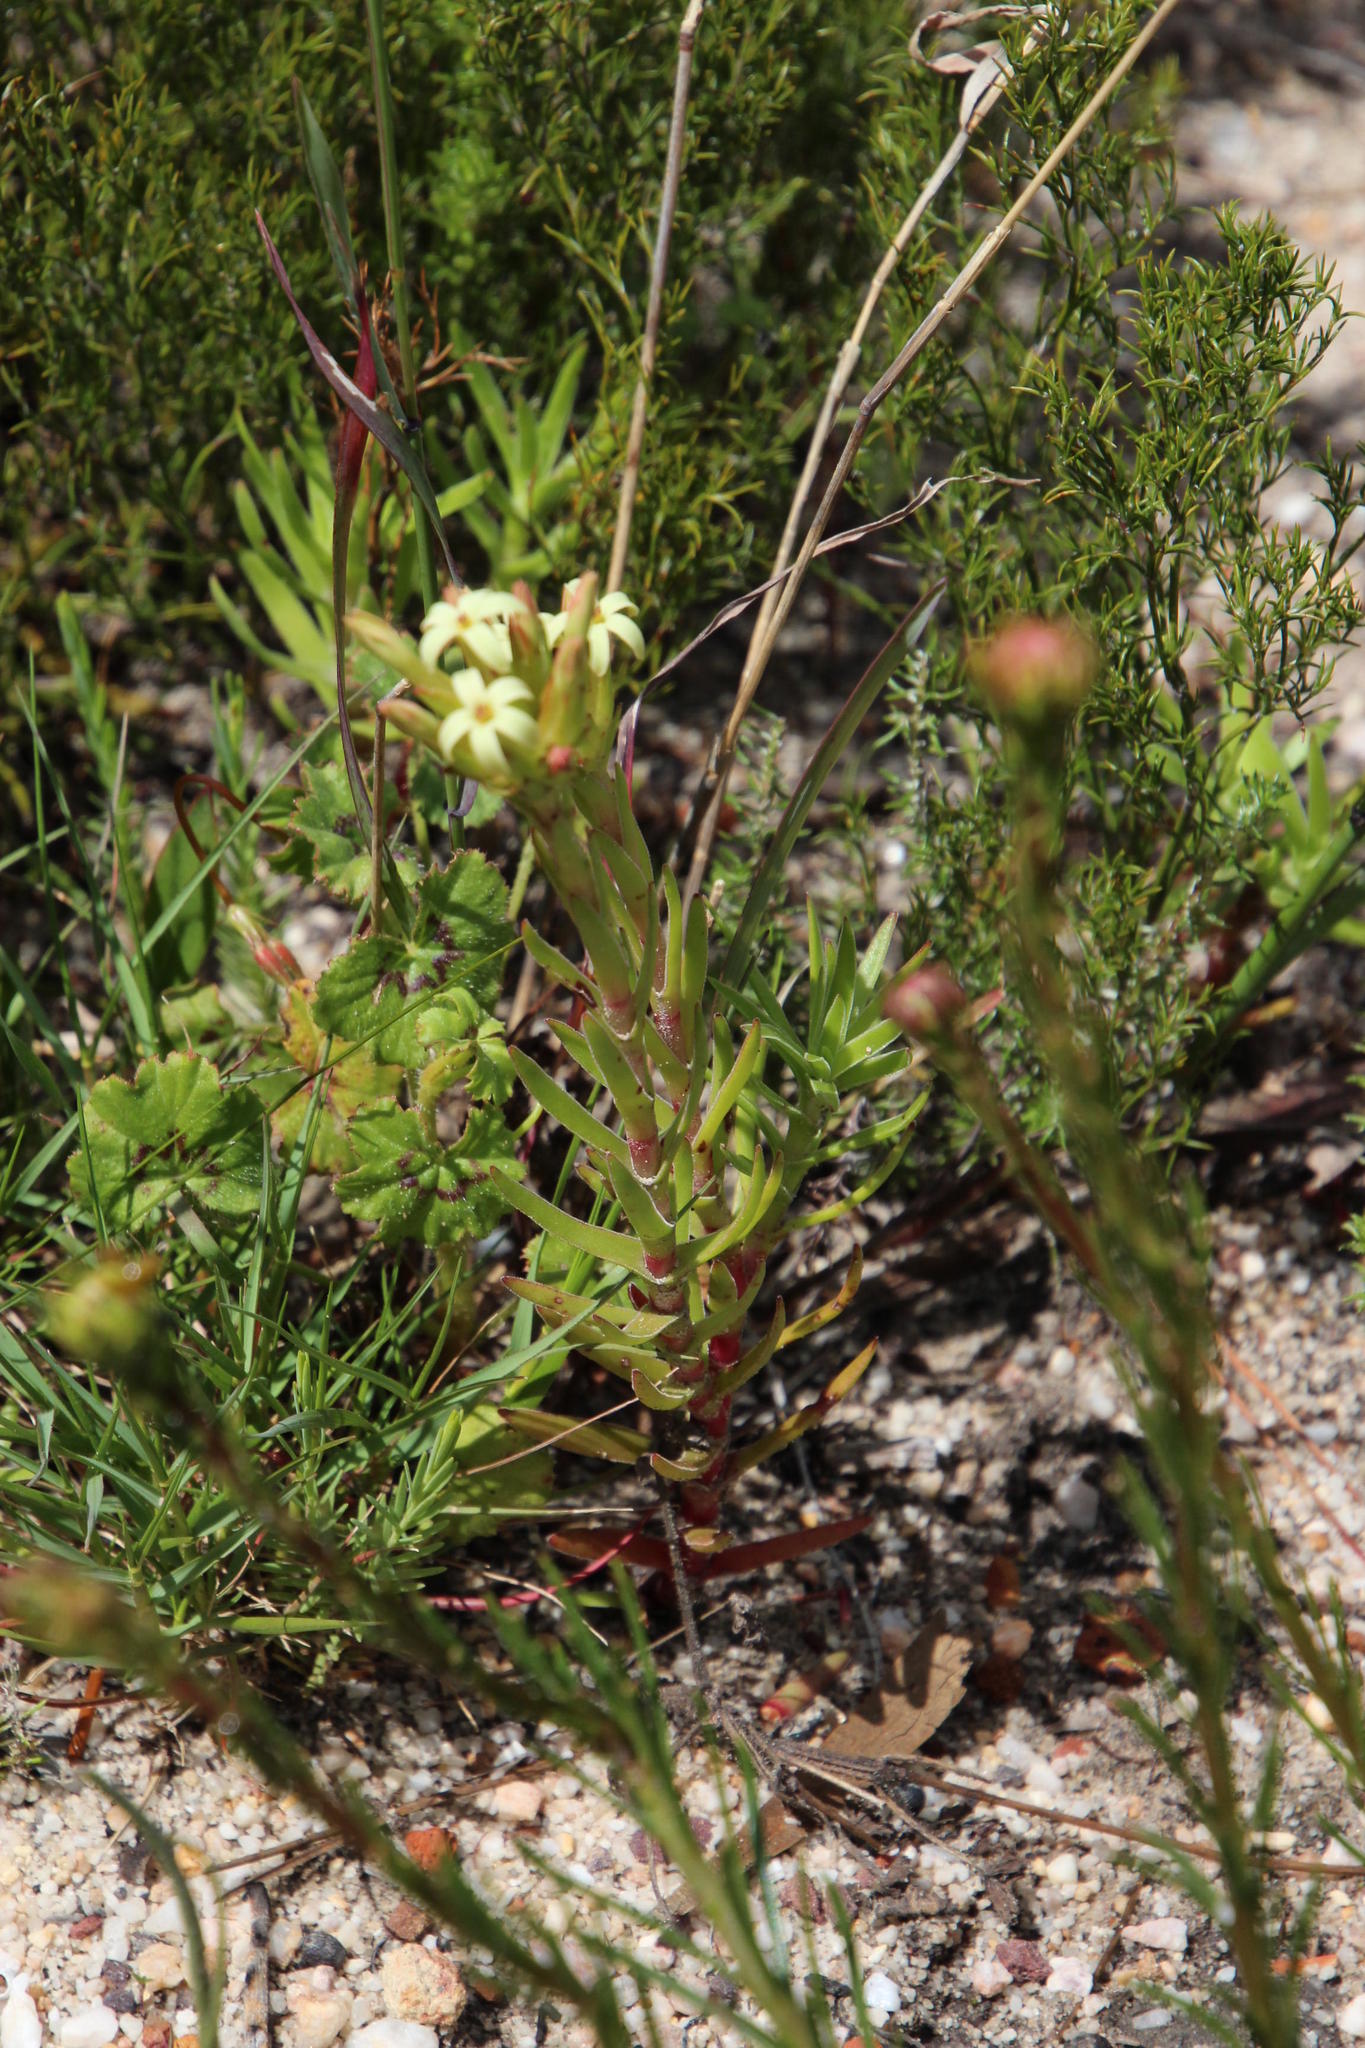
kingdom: Plantae
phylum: Tracheophyta
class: Magnoliopsida
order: Saxifragales
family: Crassulaceae
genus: Crassula
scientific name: Crassula fascicularis
